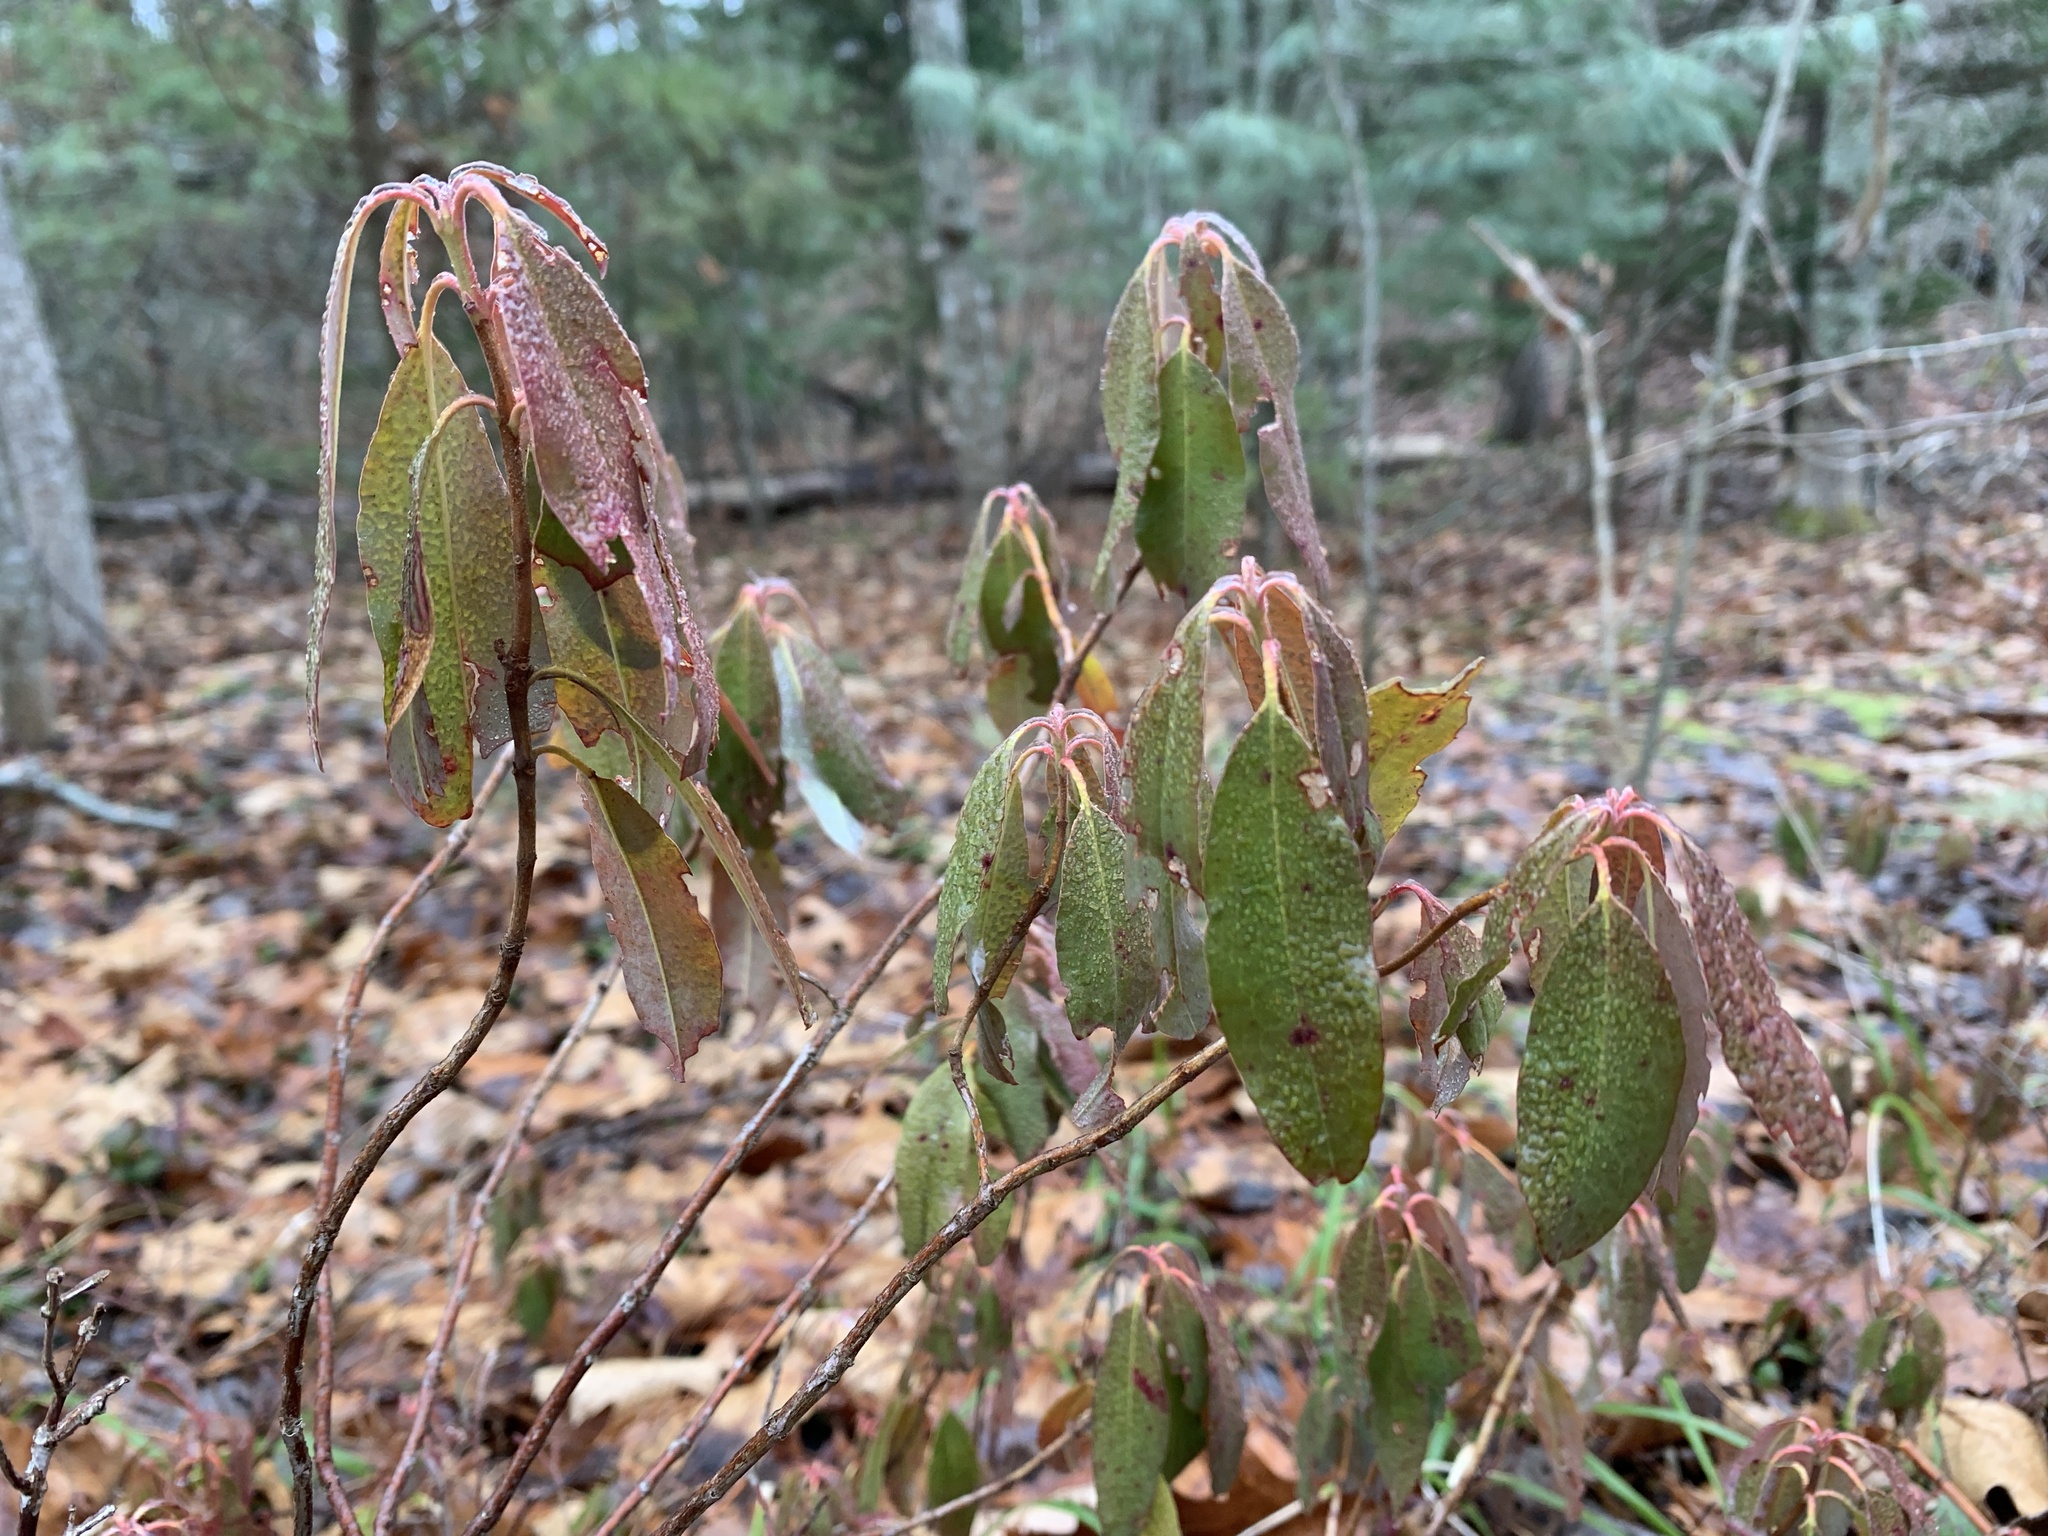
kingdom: Plantae
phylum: Tracheophyta
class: Magnoliopsida
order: Ericales
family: Ericaceae
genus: Kalmia
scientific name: Kalmia angustifolia
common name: Sheep-laurel
